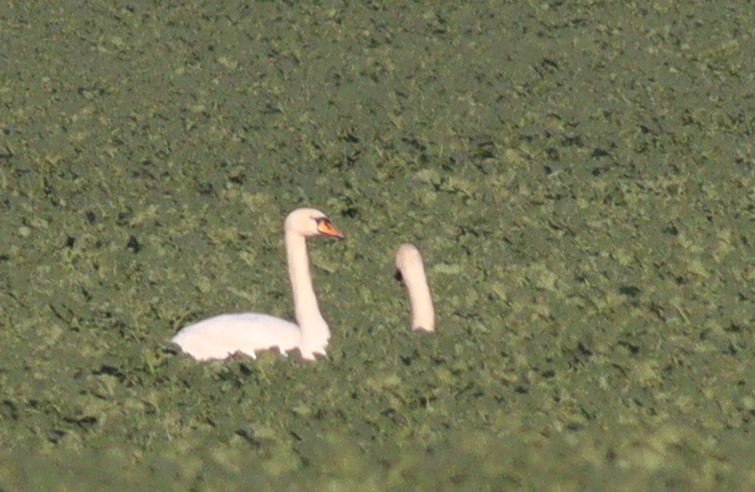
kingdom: Animalia
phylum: Chordata
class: Aves
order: Anseriformes
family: Anatidae
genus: Cygnus
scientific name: Cygnus olor
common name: Mute swan
